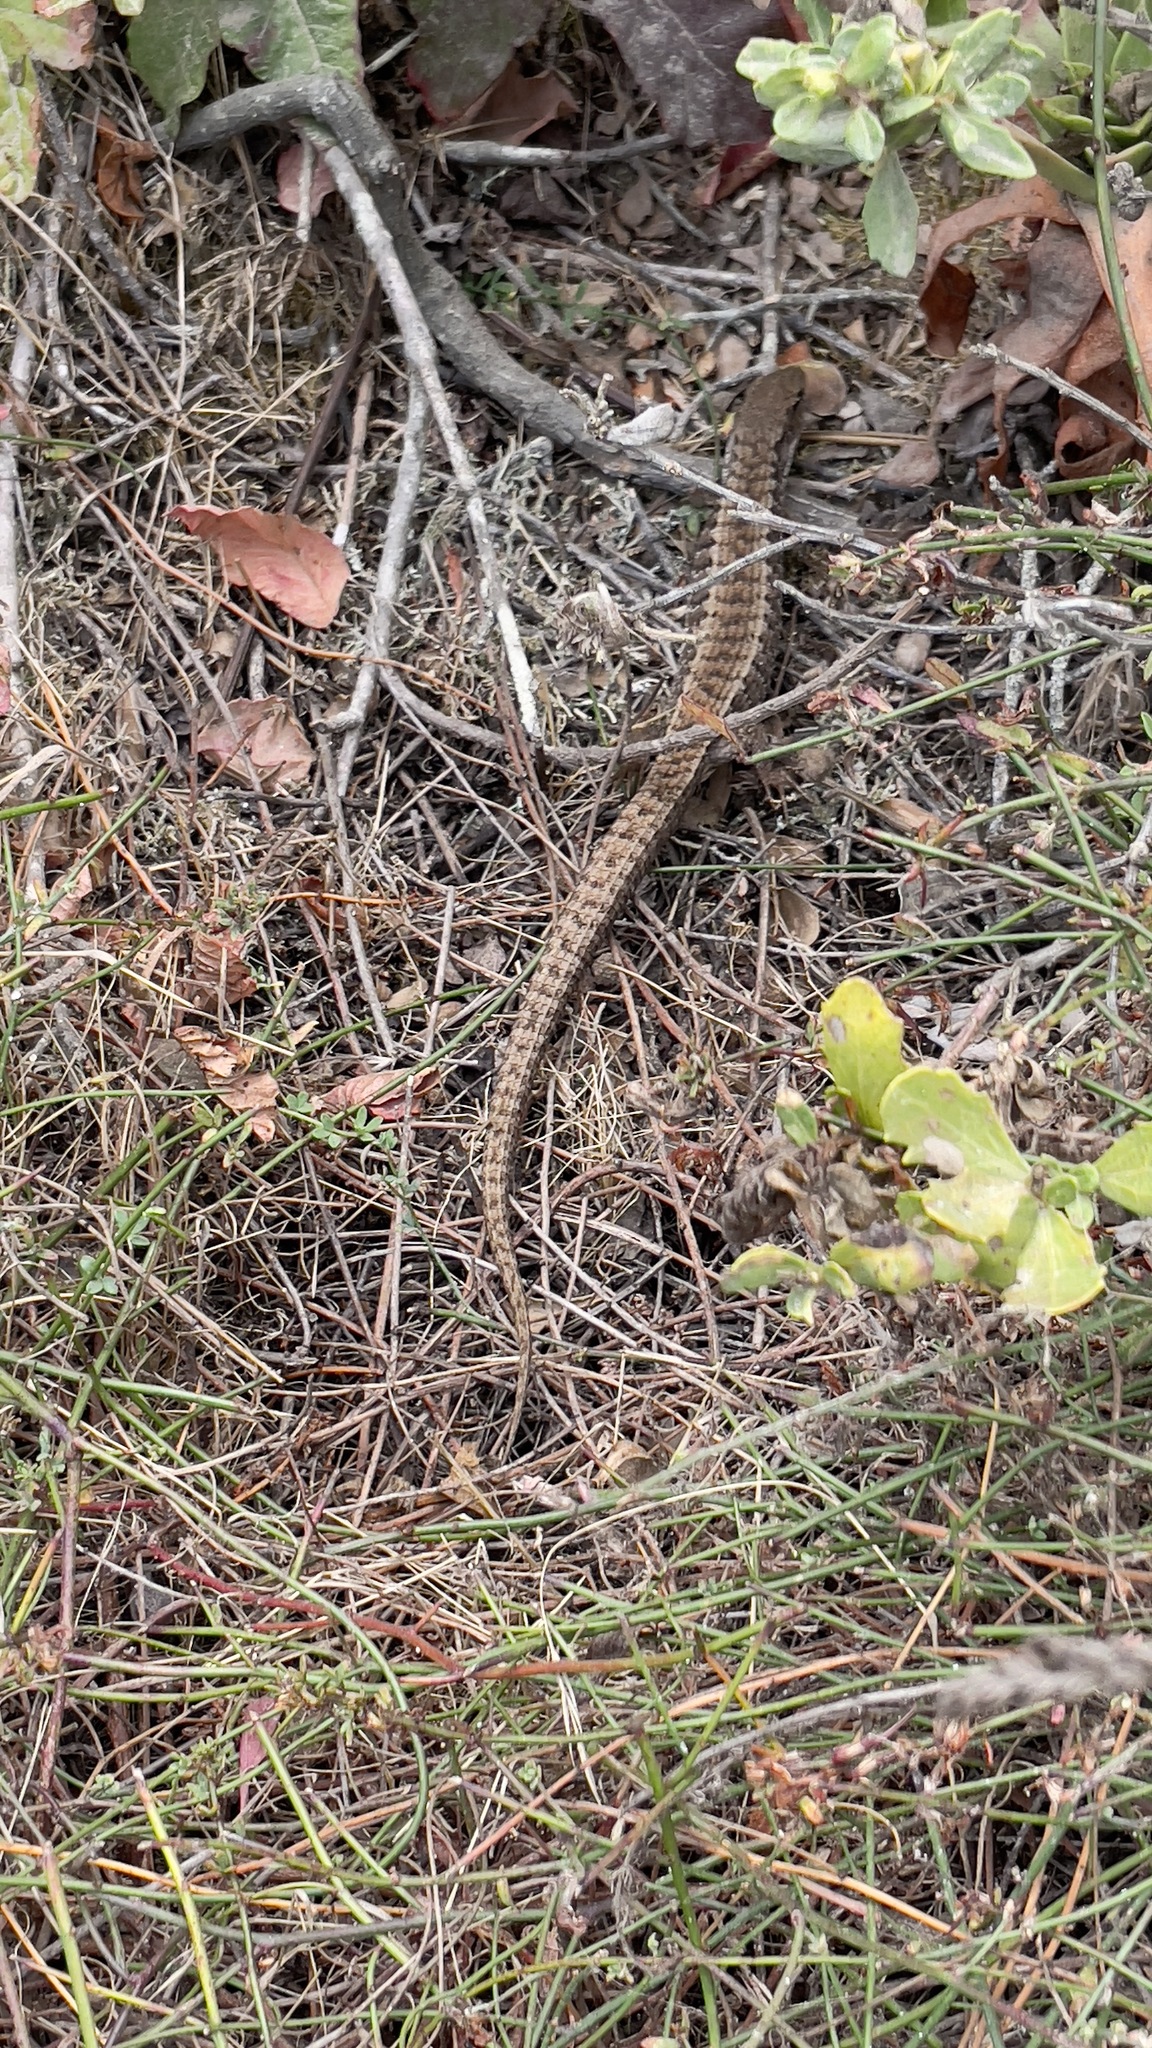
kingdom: Animalia
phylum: Chordata
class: Squamata
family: Anguidae
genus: Elgaria
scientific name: Elgaria coerulea
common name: Northern alligator lizard
